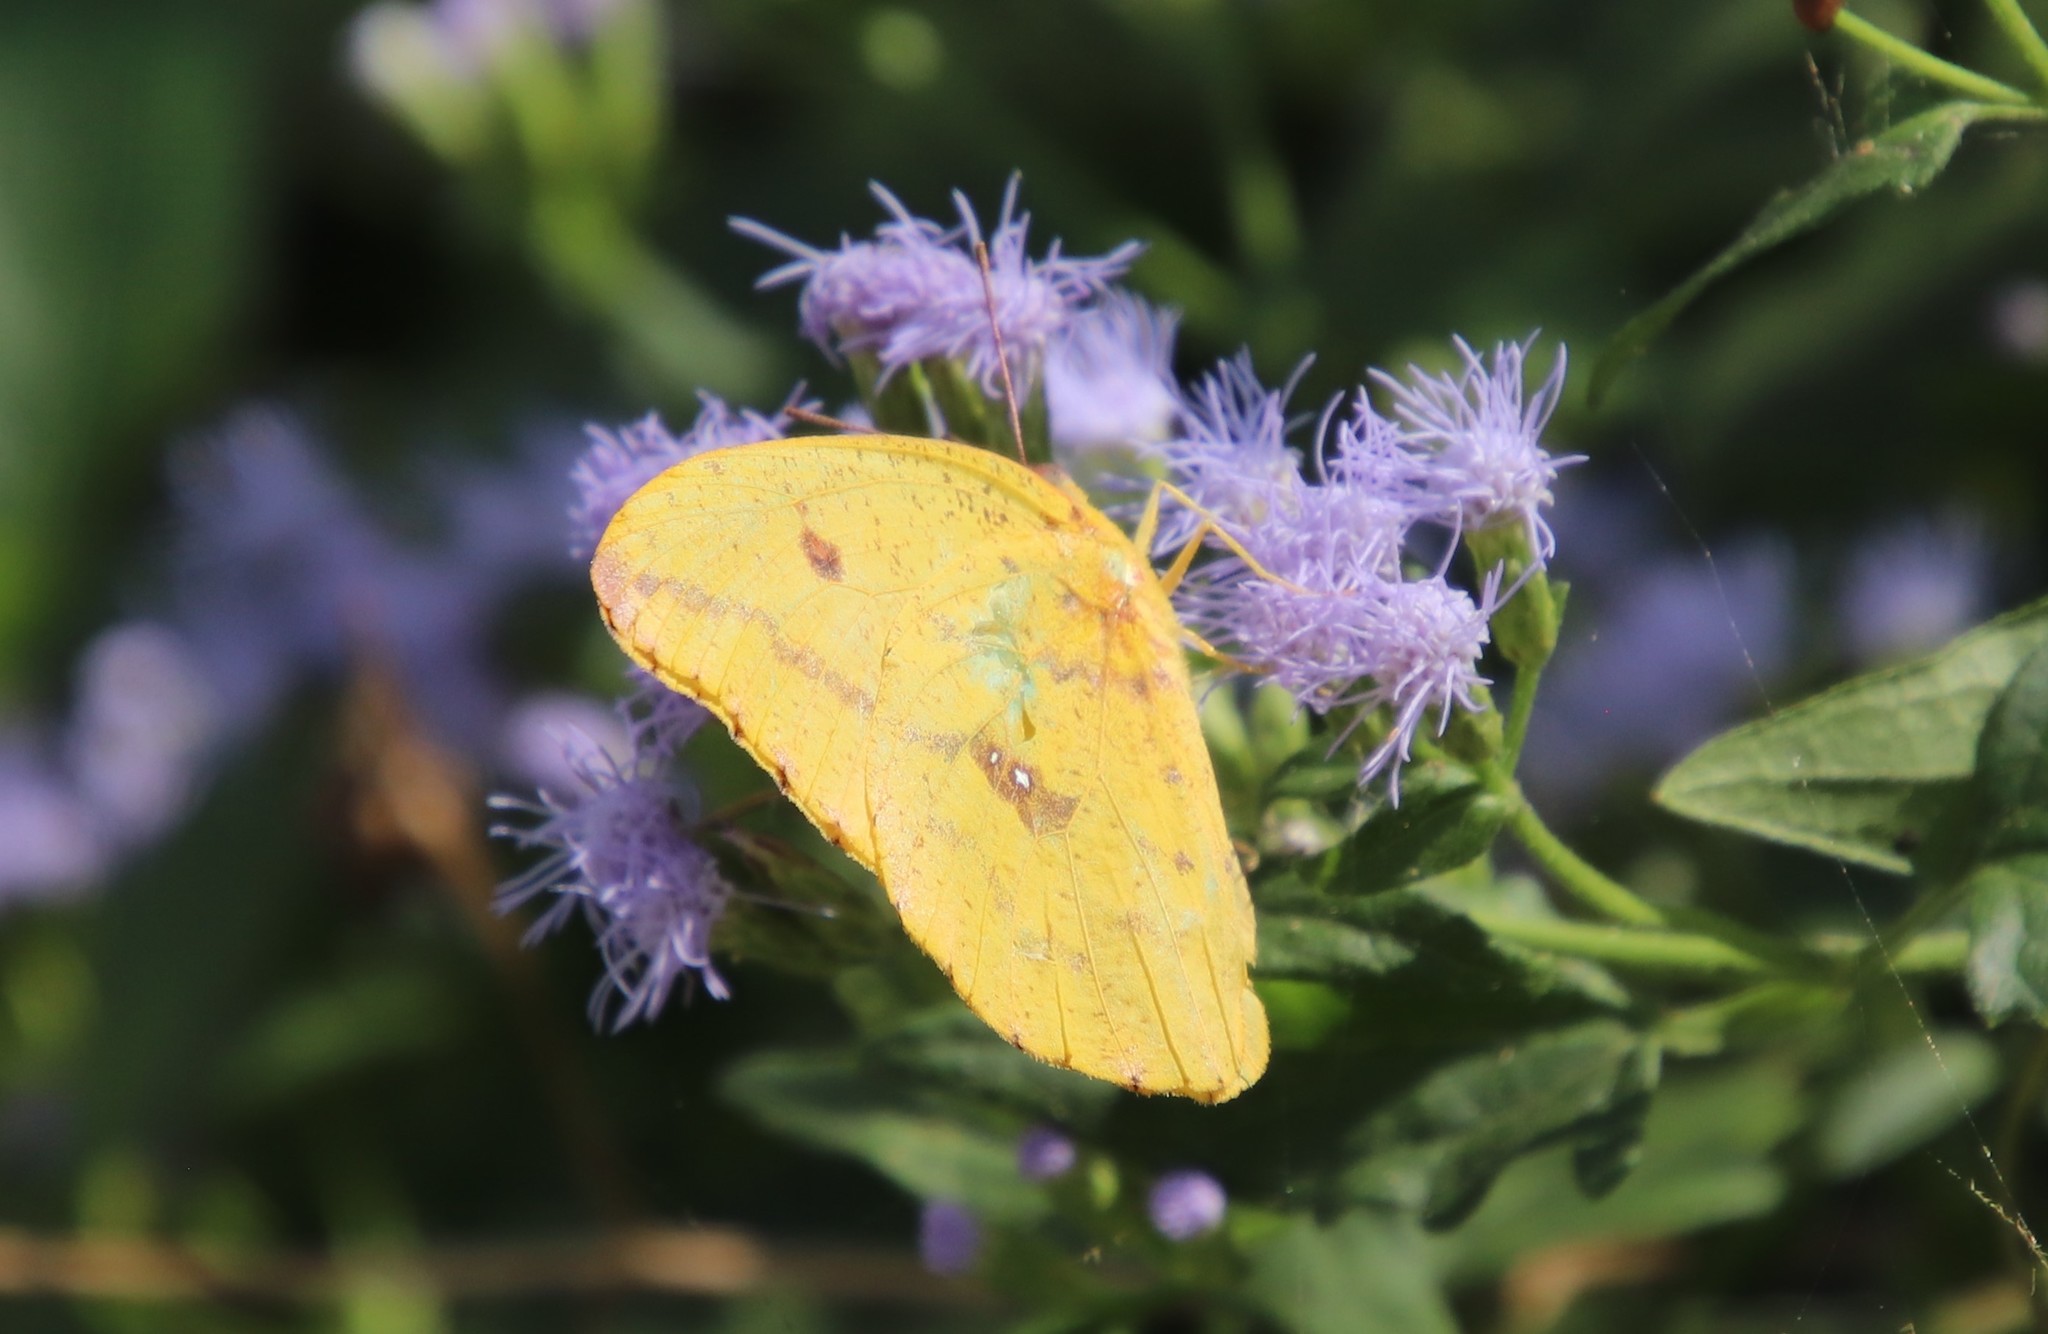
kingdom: Animalia
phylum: Arthropoda
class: Insecta
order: Lepidoptera
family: Pieridae
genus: Phoebis
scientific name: Phoebis agarithe
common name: Large orange sulphur
